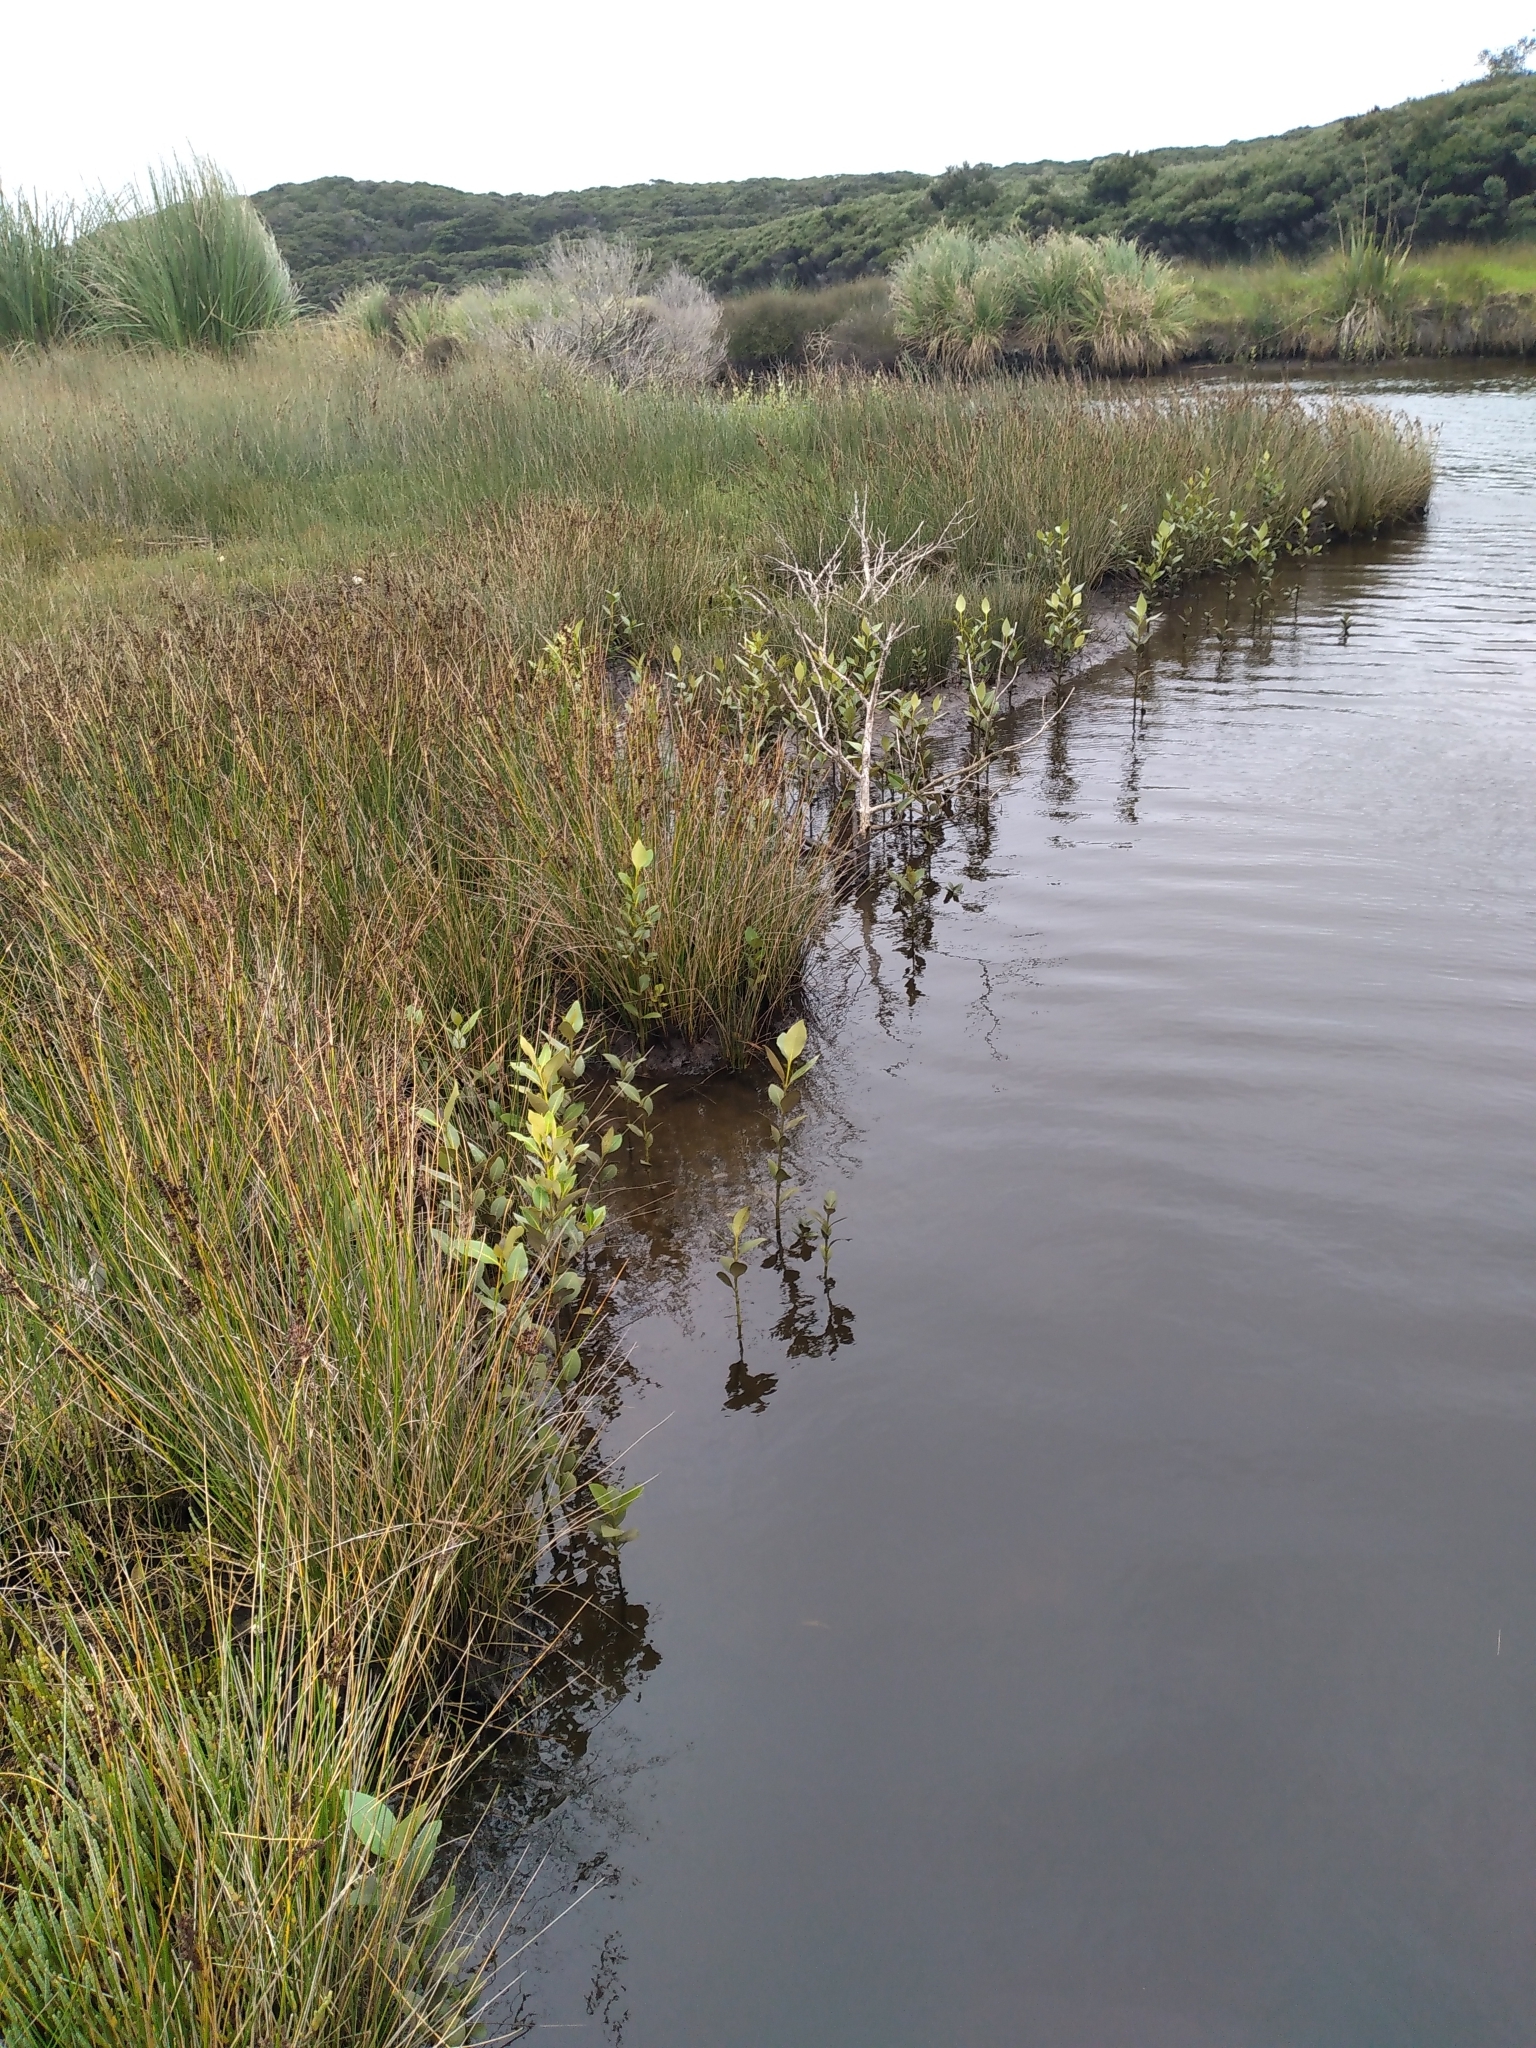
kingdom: Plantae
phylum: Tracheophyta
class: Magnoliopsida
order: Lamiales
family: Acanthaceae
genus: Avicennia
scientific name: Avicennia marina
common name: Gray mangrove
